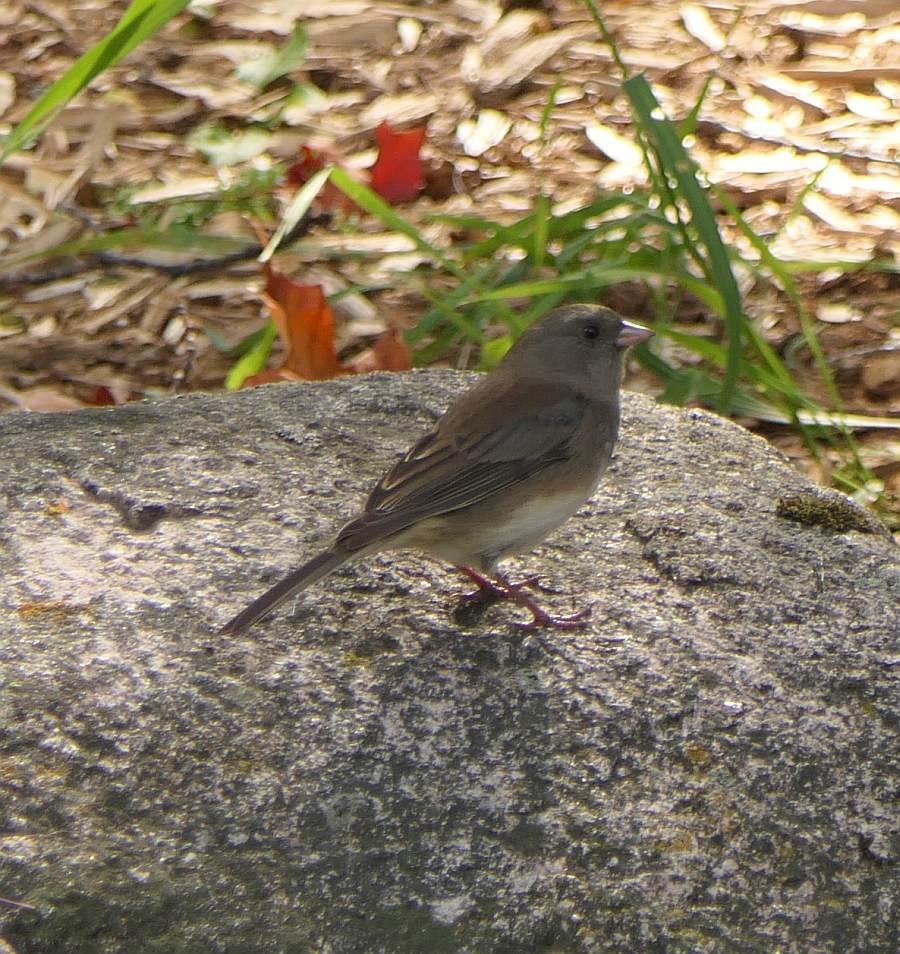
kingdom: Animalia
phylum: Chordata
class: Aves
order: Passeriformes
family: Passerellidae
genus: Junco
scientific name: Junco hyemalis
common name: Dark-eyed junco
